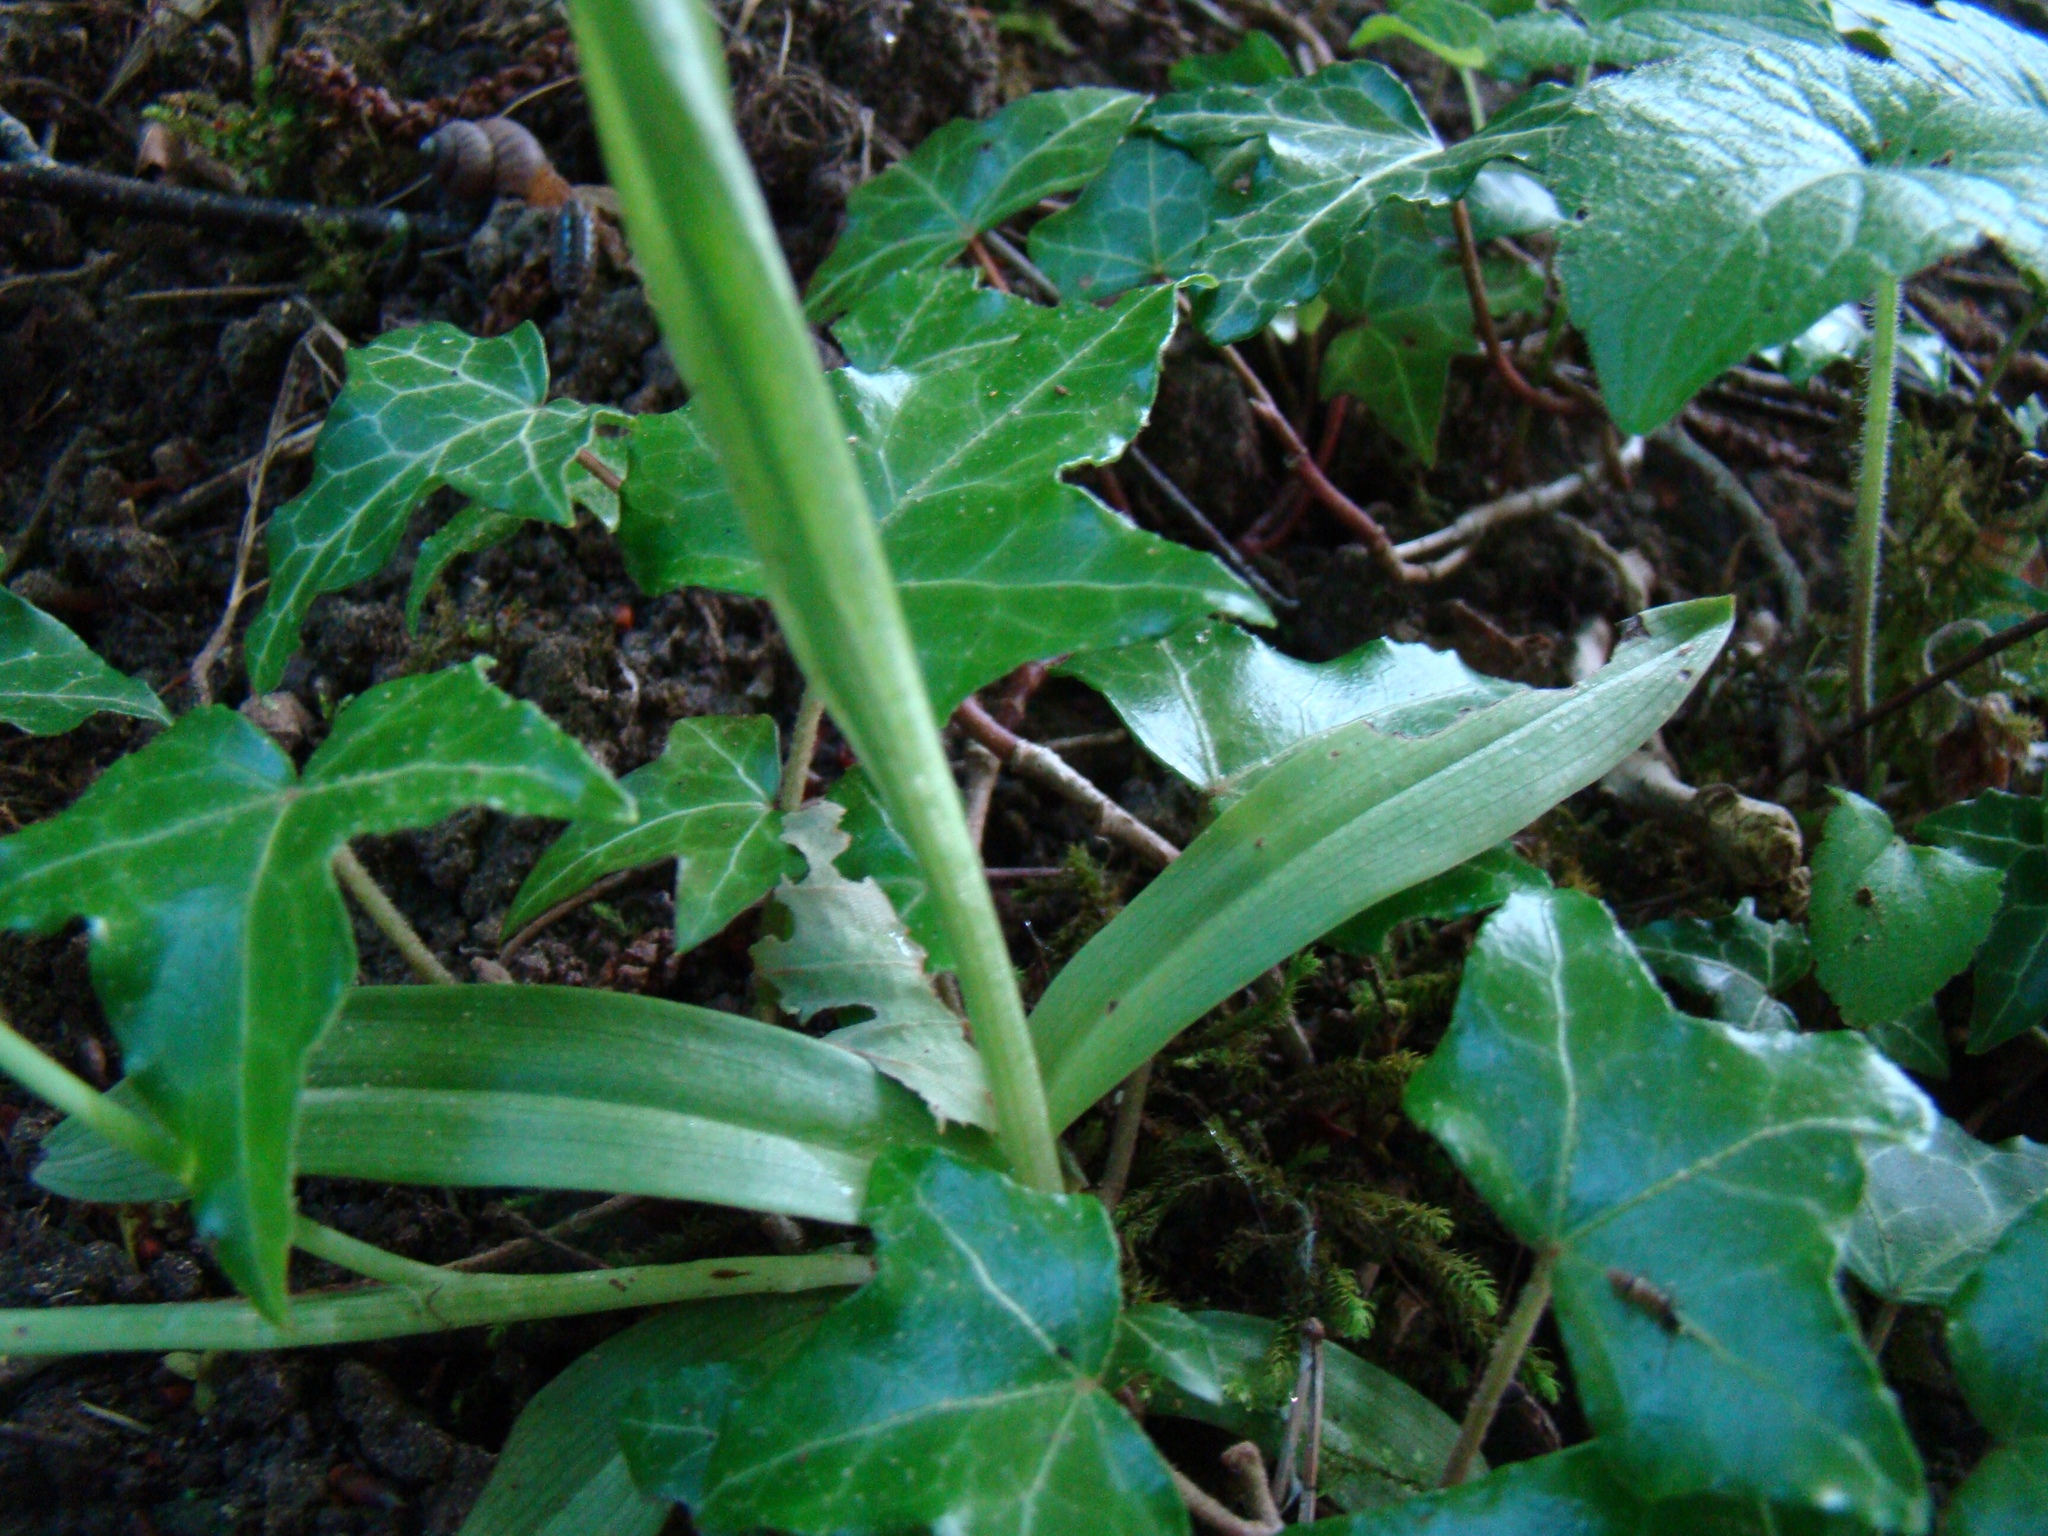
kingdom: Plantae
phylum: Tracheophyta
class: Liliopsida
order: Asparagales
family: Orchidaceae
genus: Ophrys
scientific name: Ophrys insectifera
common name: Fly orchid
